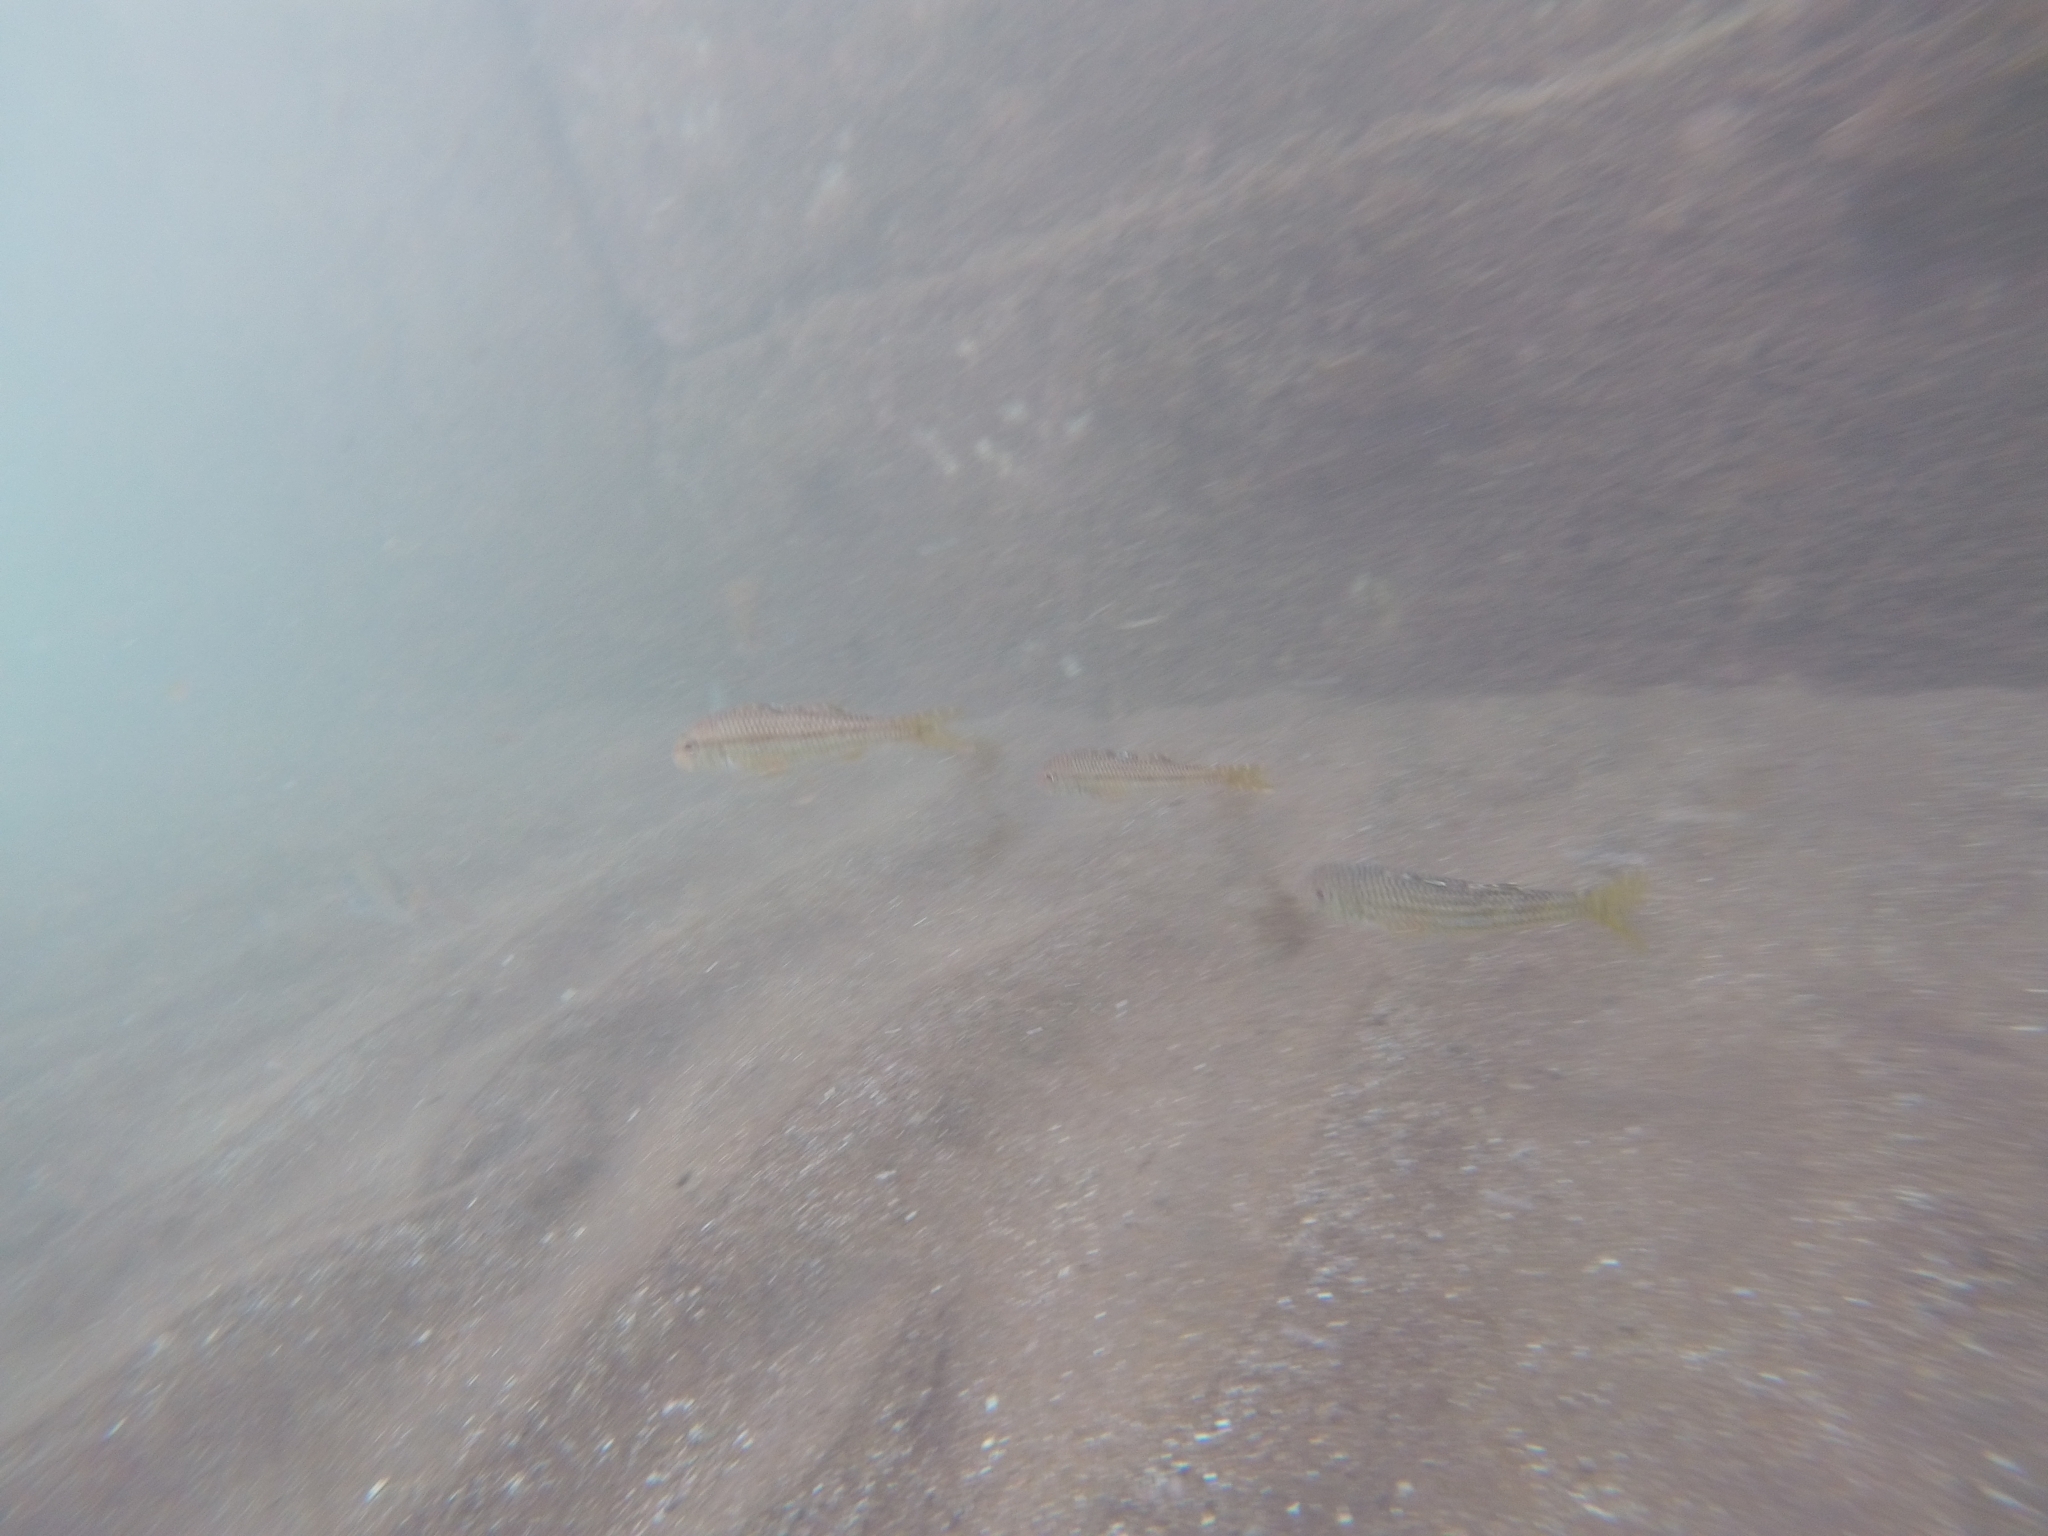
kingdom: Animalia
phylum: Chordata
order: Perciformes
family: Mullidae
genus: Mullus
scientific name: Mullus surmuletus
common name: Red mullet
